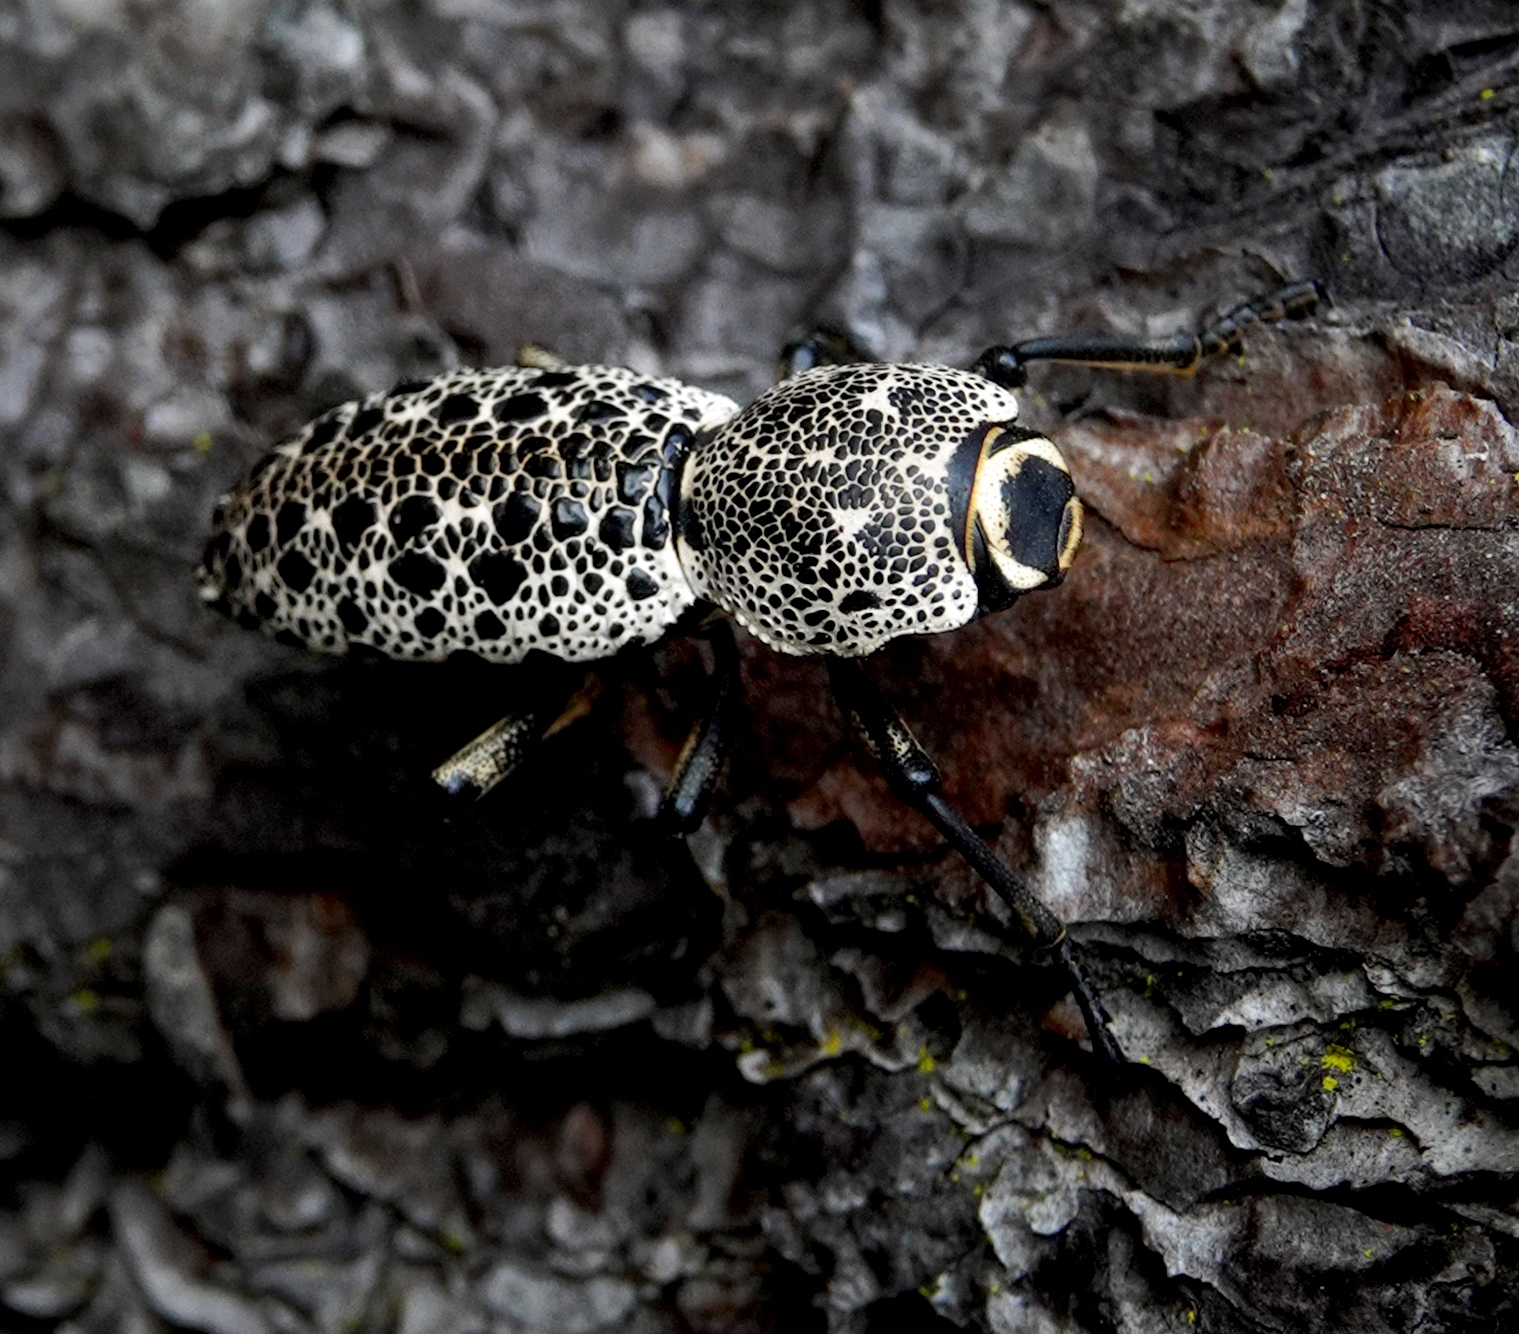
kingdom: Animalia
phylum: Arthropoda
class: Insecta
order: Coleoptera
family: Zopheridae
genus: Zopherus
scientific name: Zopherus
